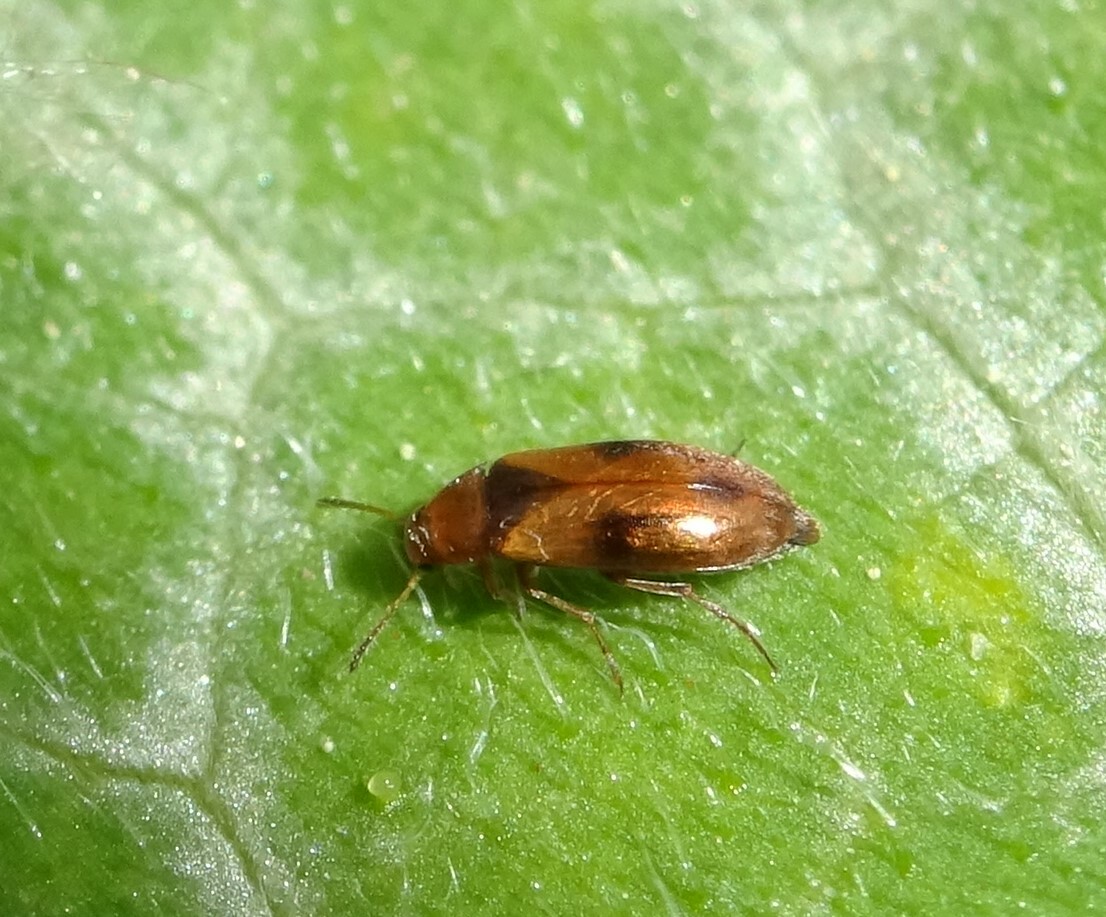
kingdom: Animalia
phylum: Arthropoda
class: Insecta
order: Coleoptera
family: Scraptiidae
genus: Anaspis
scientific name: Anaspis maculata
